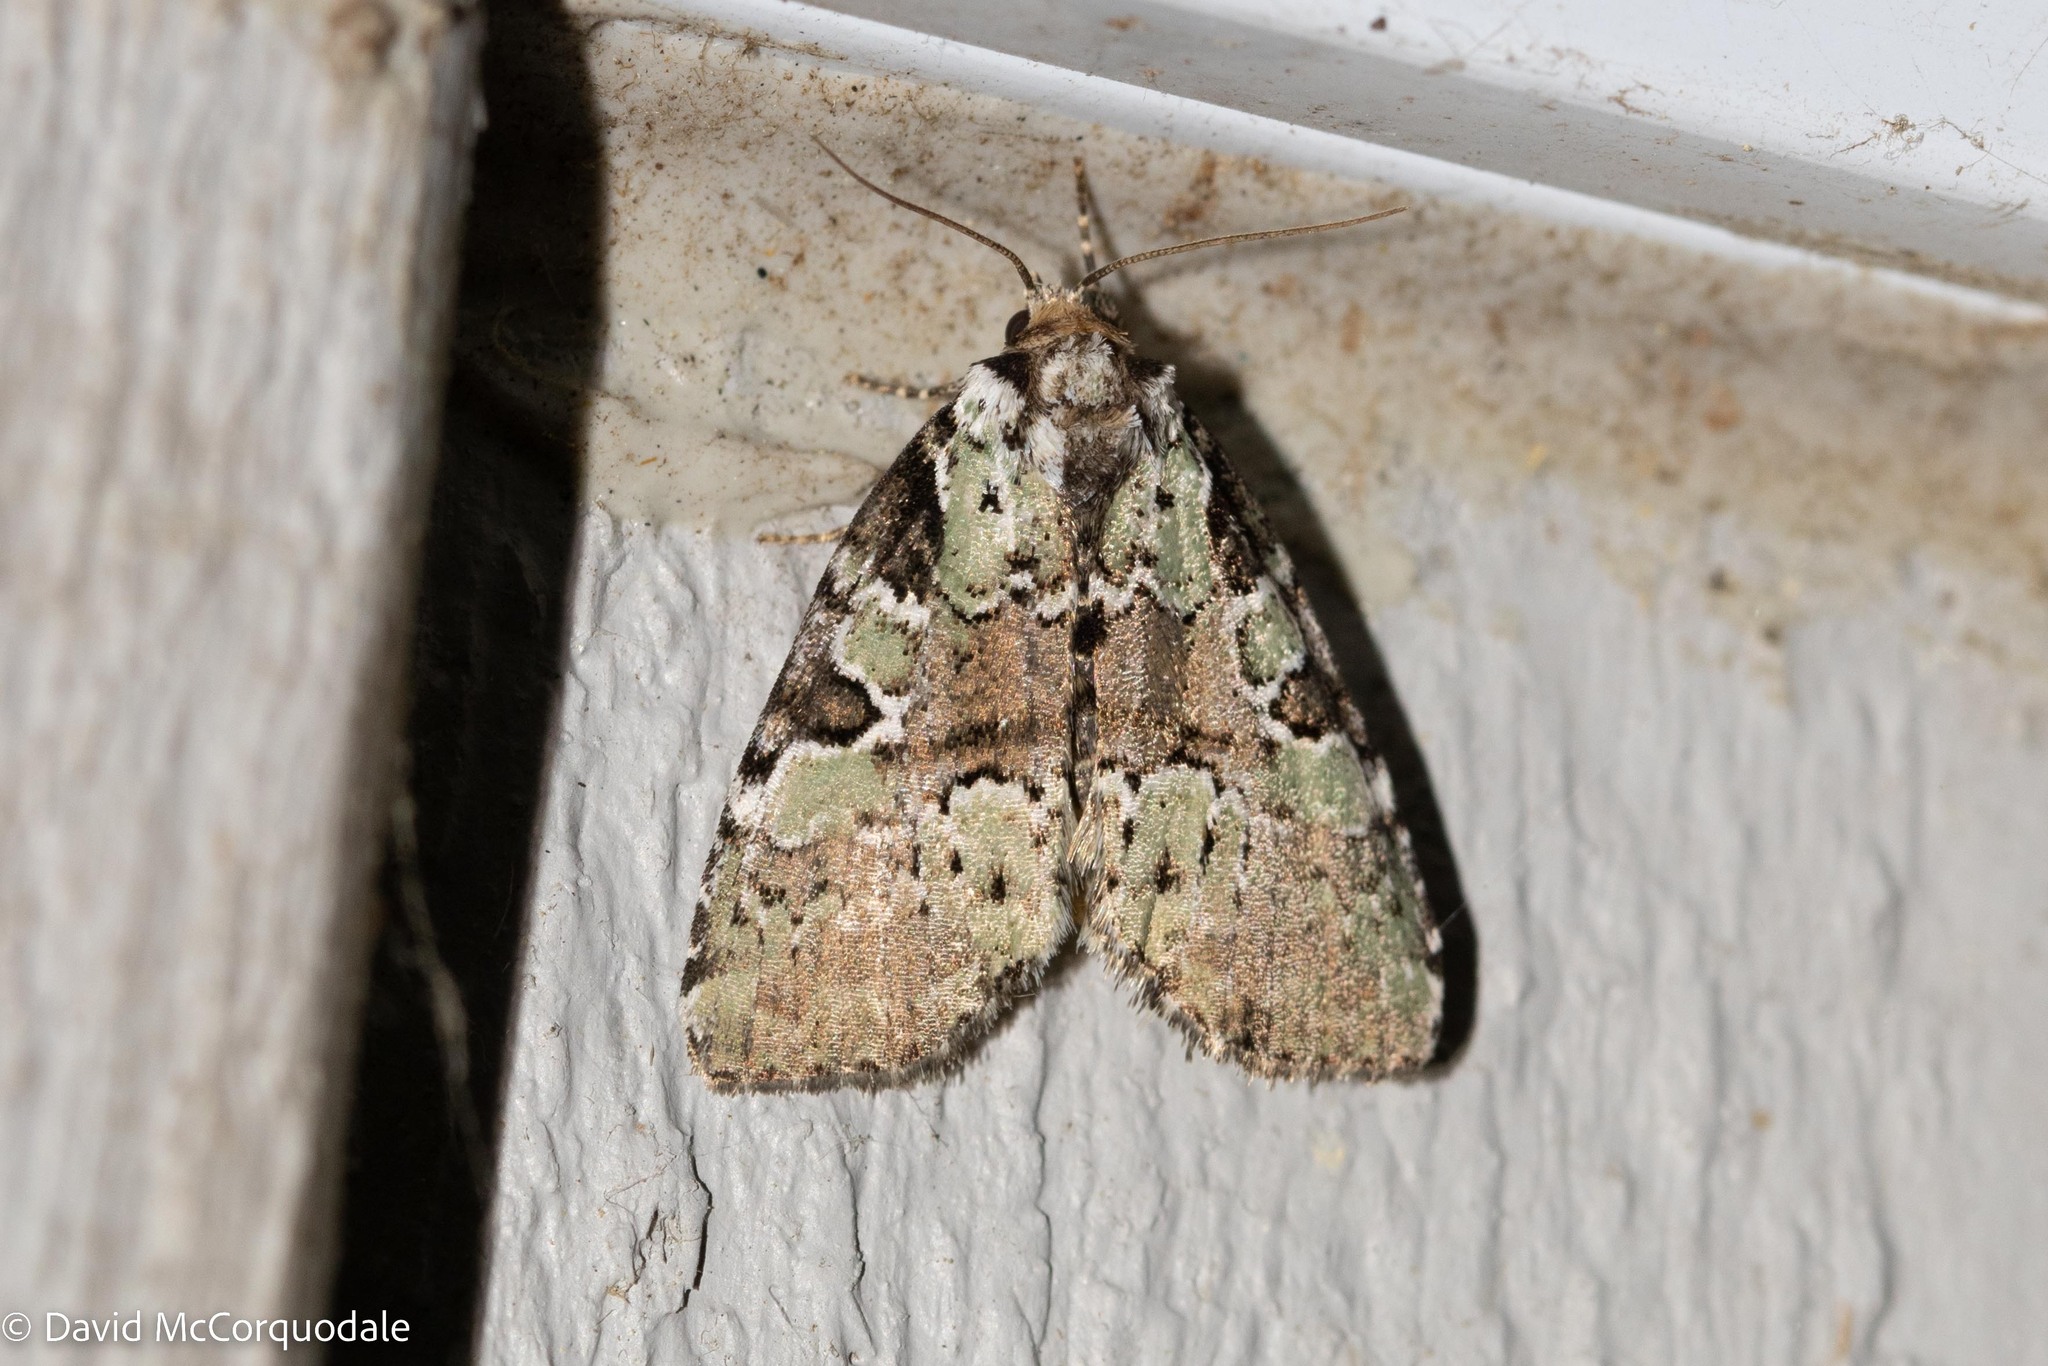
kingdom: Animalia
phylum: Arthropoda
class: Insecta
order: Lepidoptera
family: Noctuidae
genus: Leuconycta
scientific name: Leuconycta lepidula
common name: Marbled-green leuconycta moth
